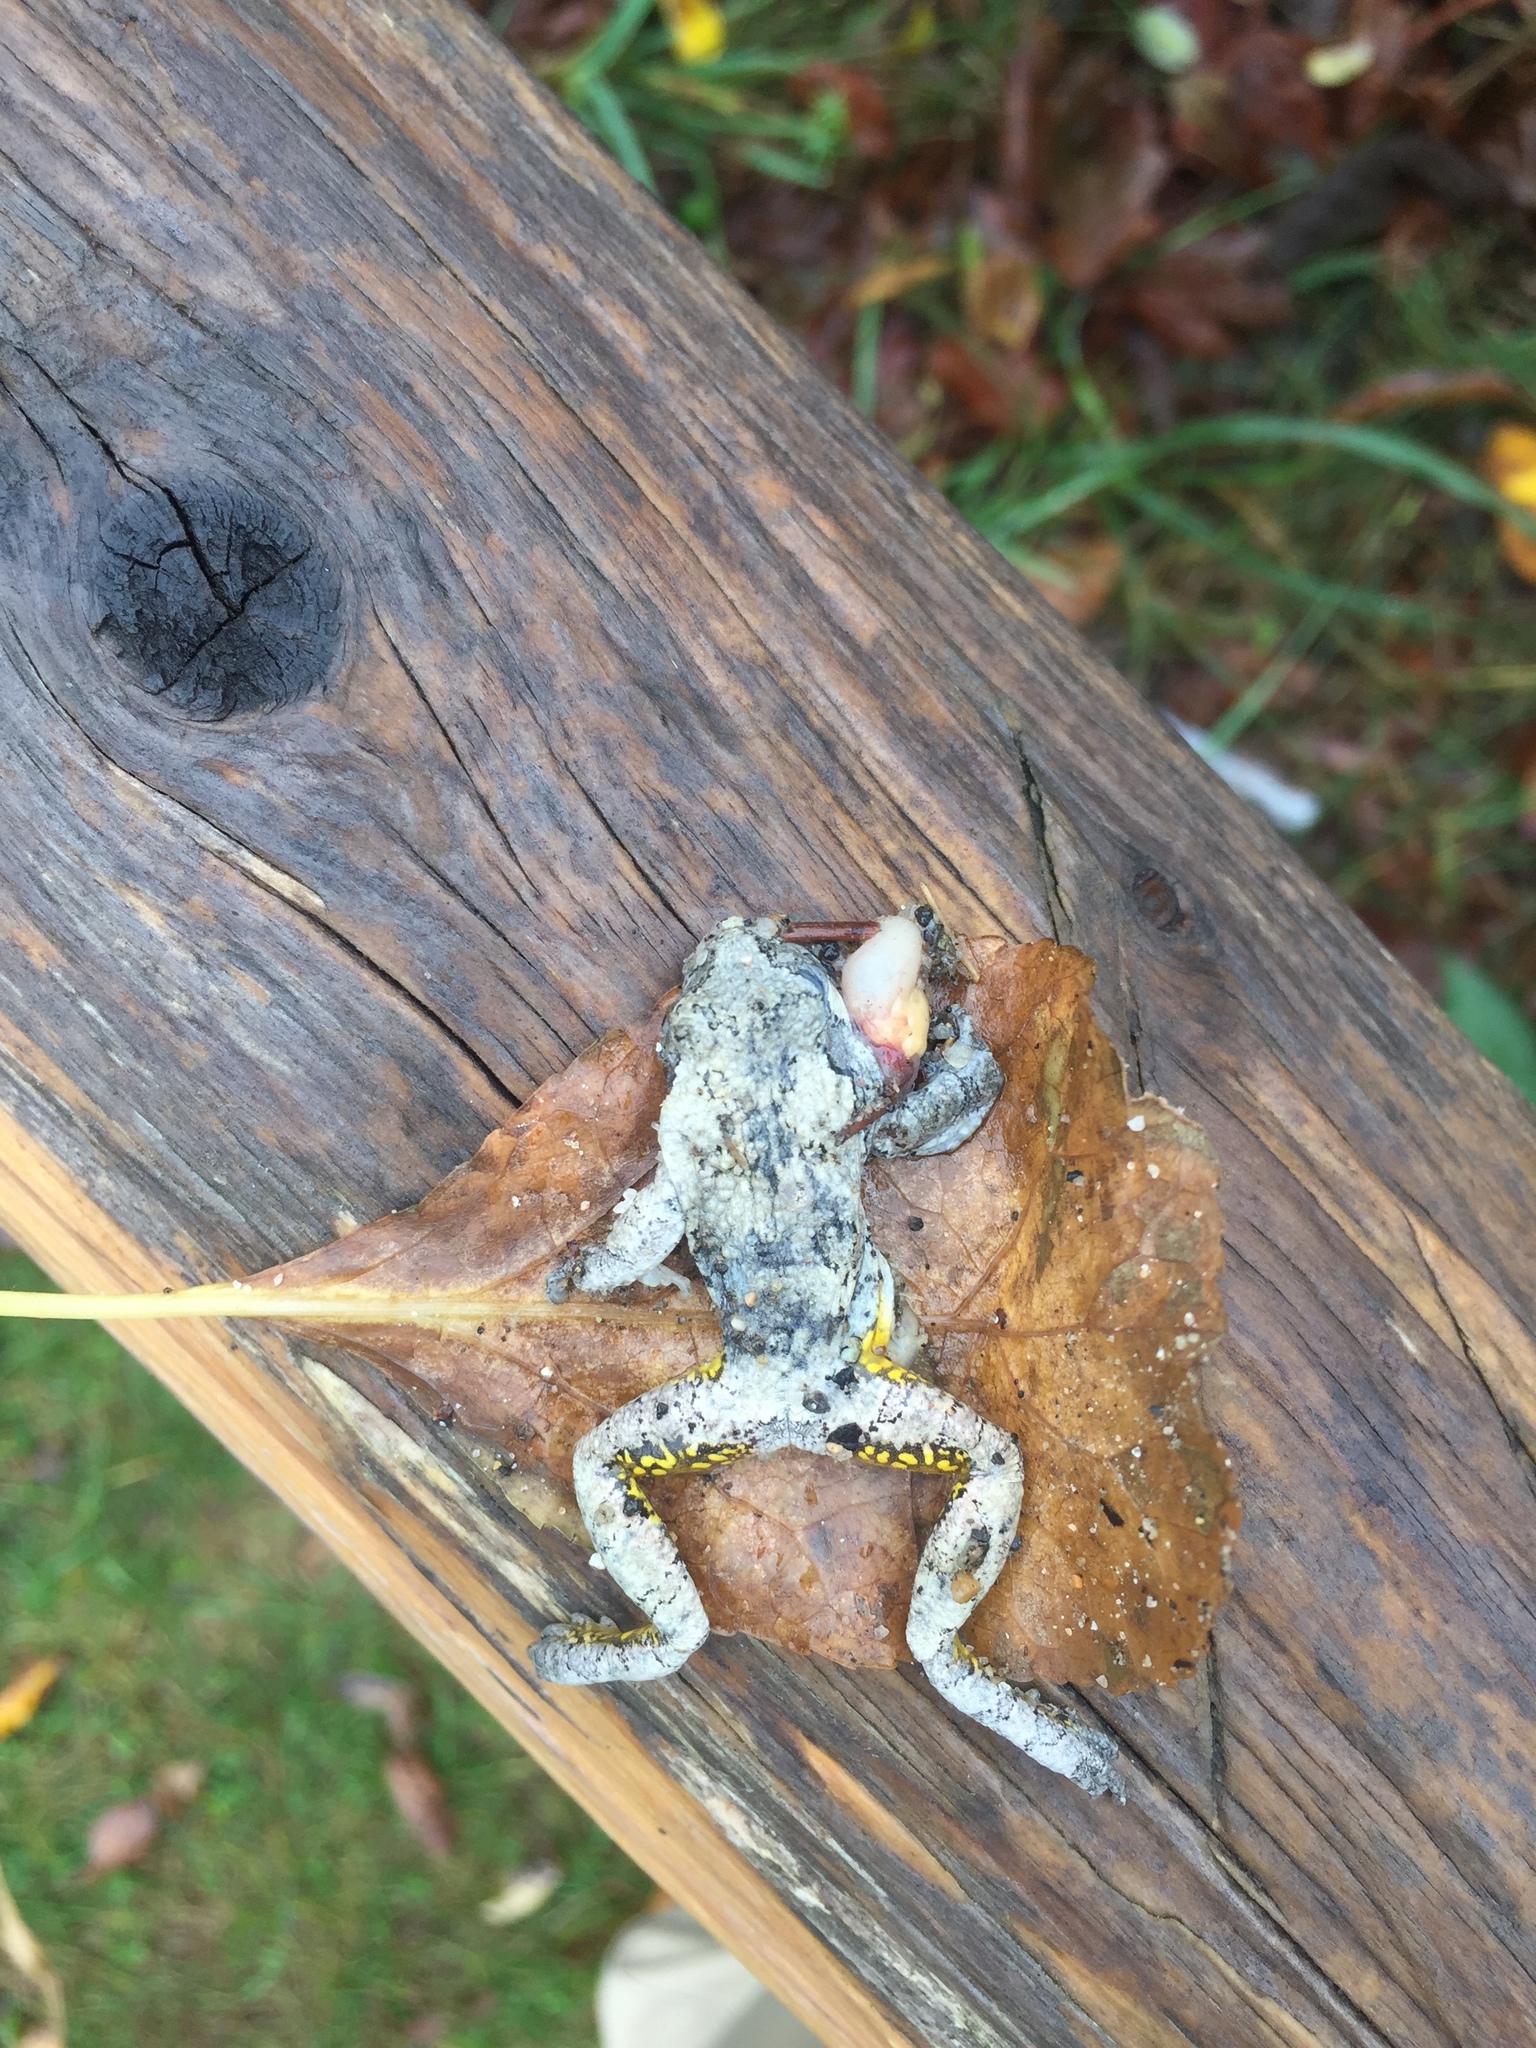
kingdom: Animalia
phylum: Chordata
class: Amphibia
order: Anura
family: Hylidae
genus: Dryophytes
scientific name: Dryophytes versicolor
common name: Gray treefrog
